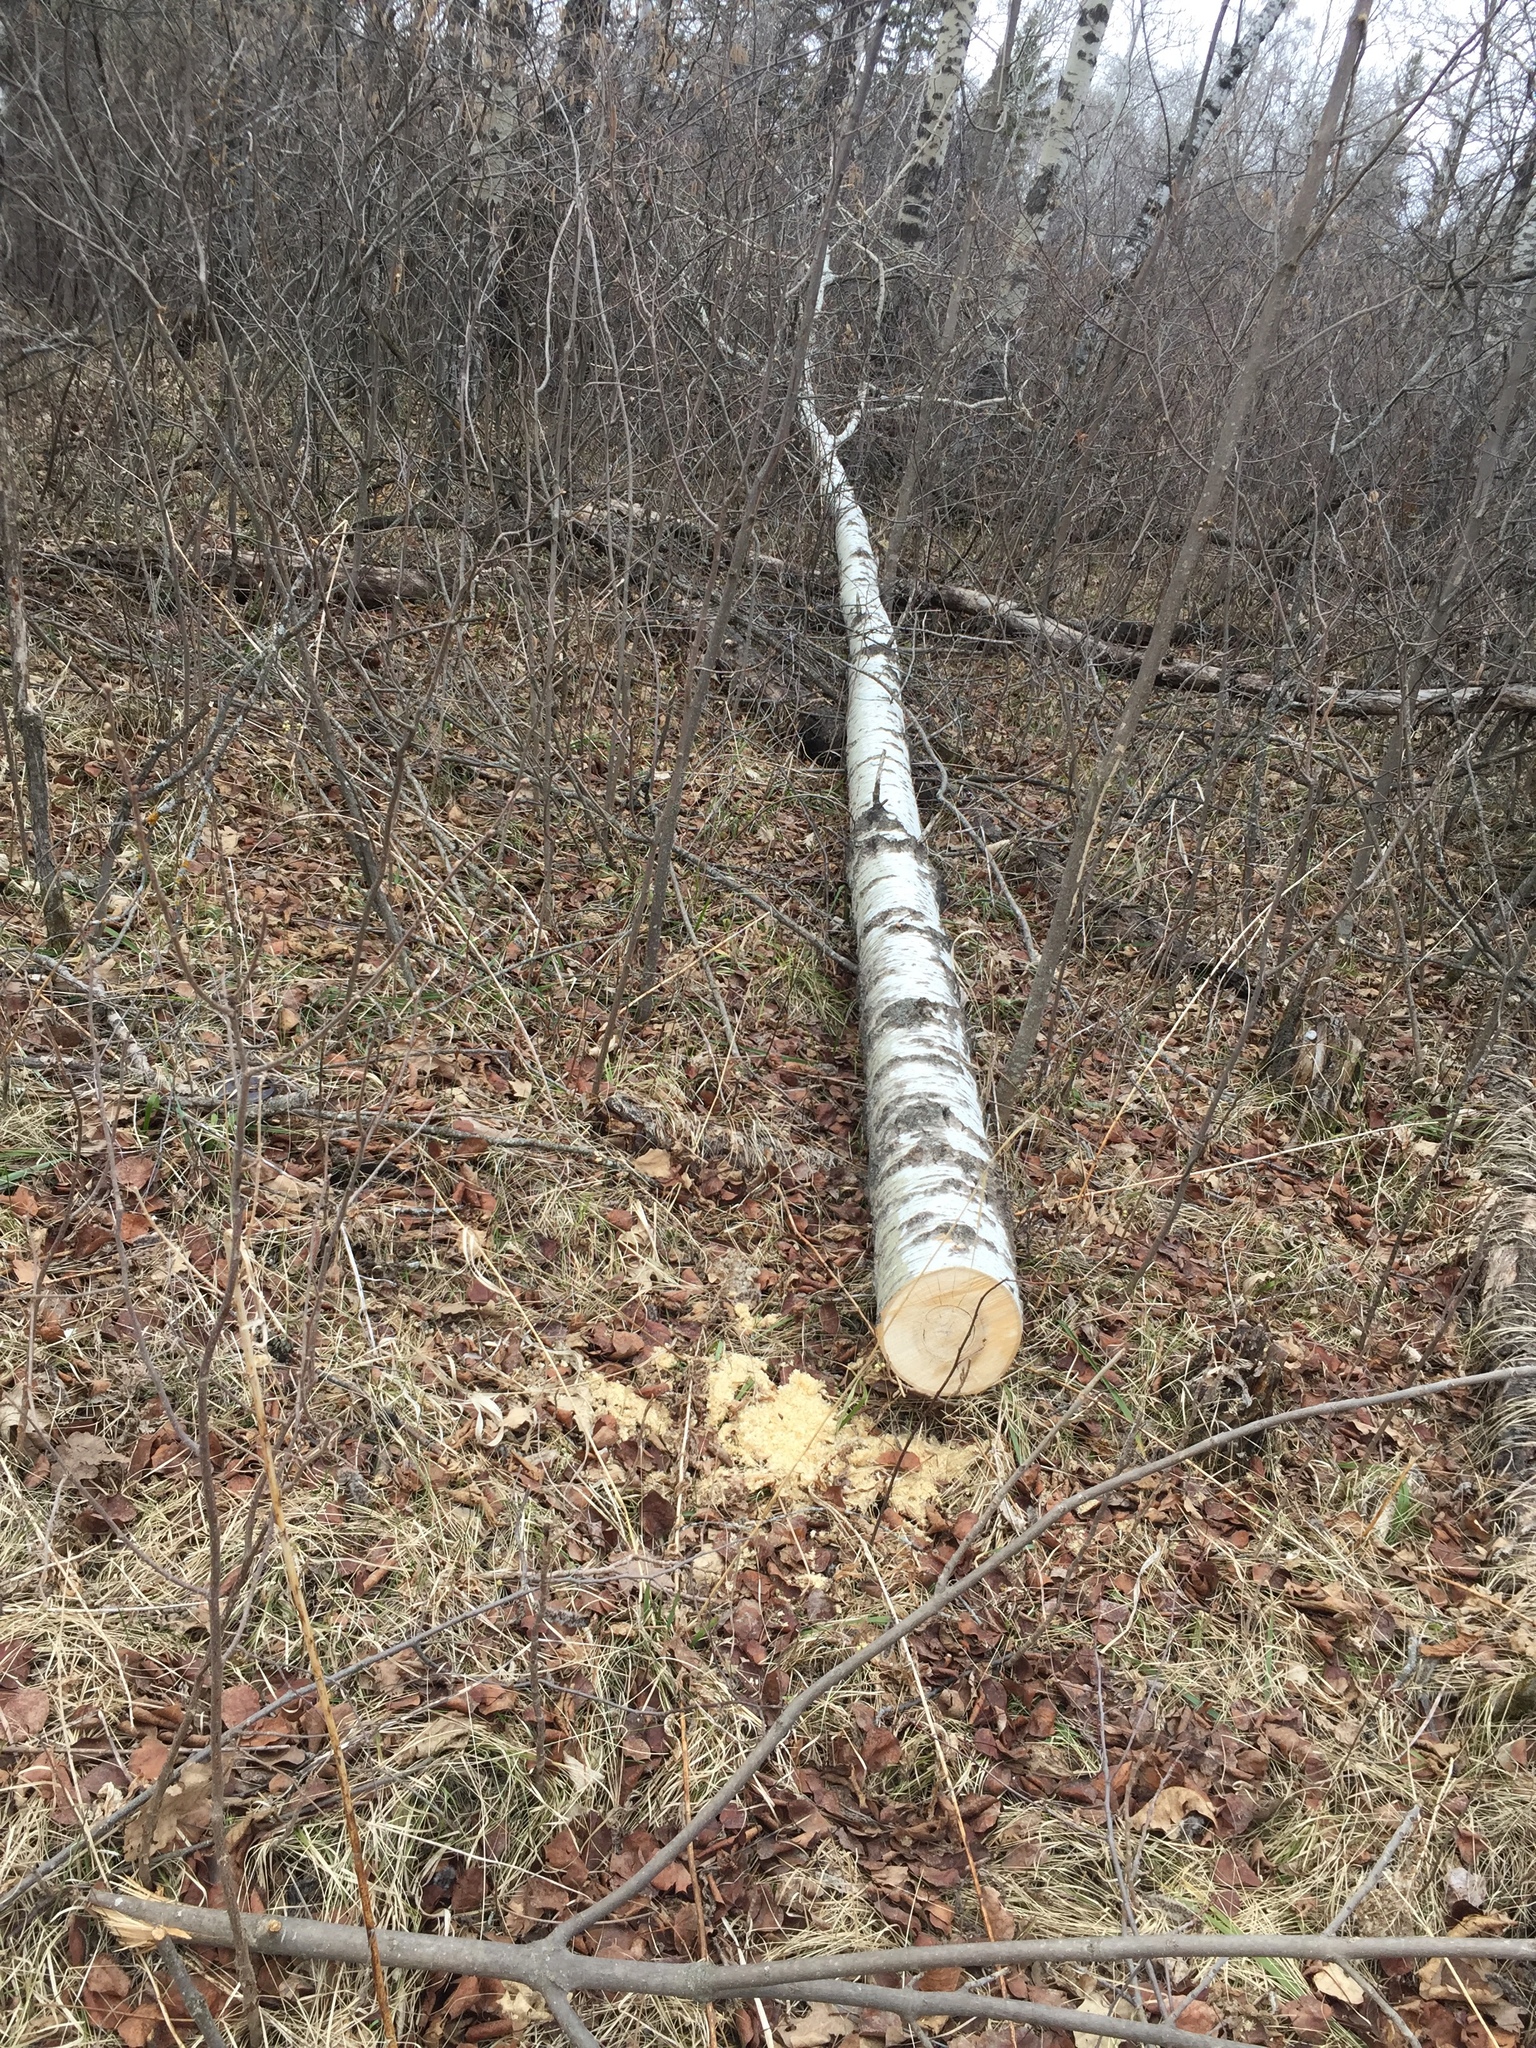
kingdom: Plantae
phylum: Tracheophyta
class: Magnoliopsida
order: Malpighiales
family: Salicaceae
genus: Populus
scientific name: Populus tremuloides
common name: Quaking aspen
